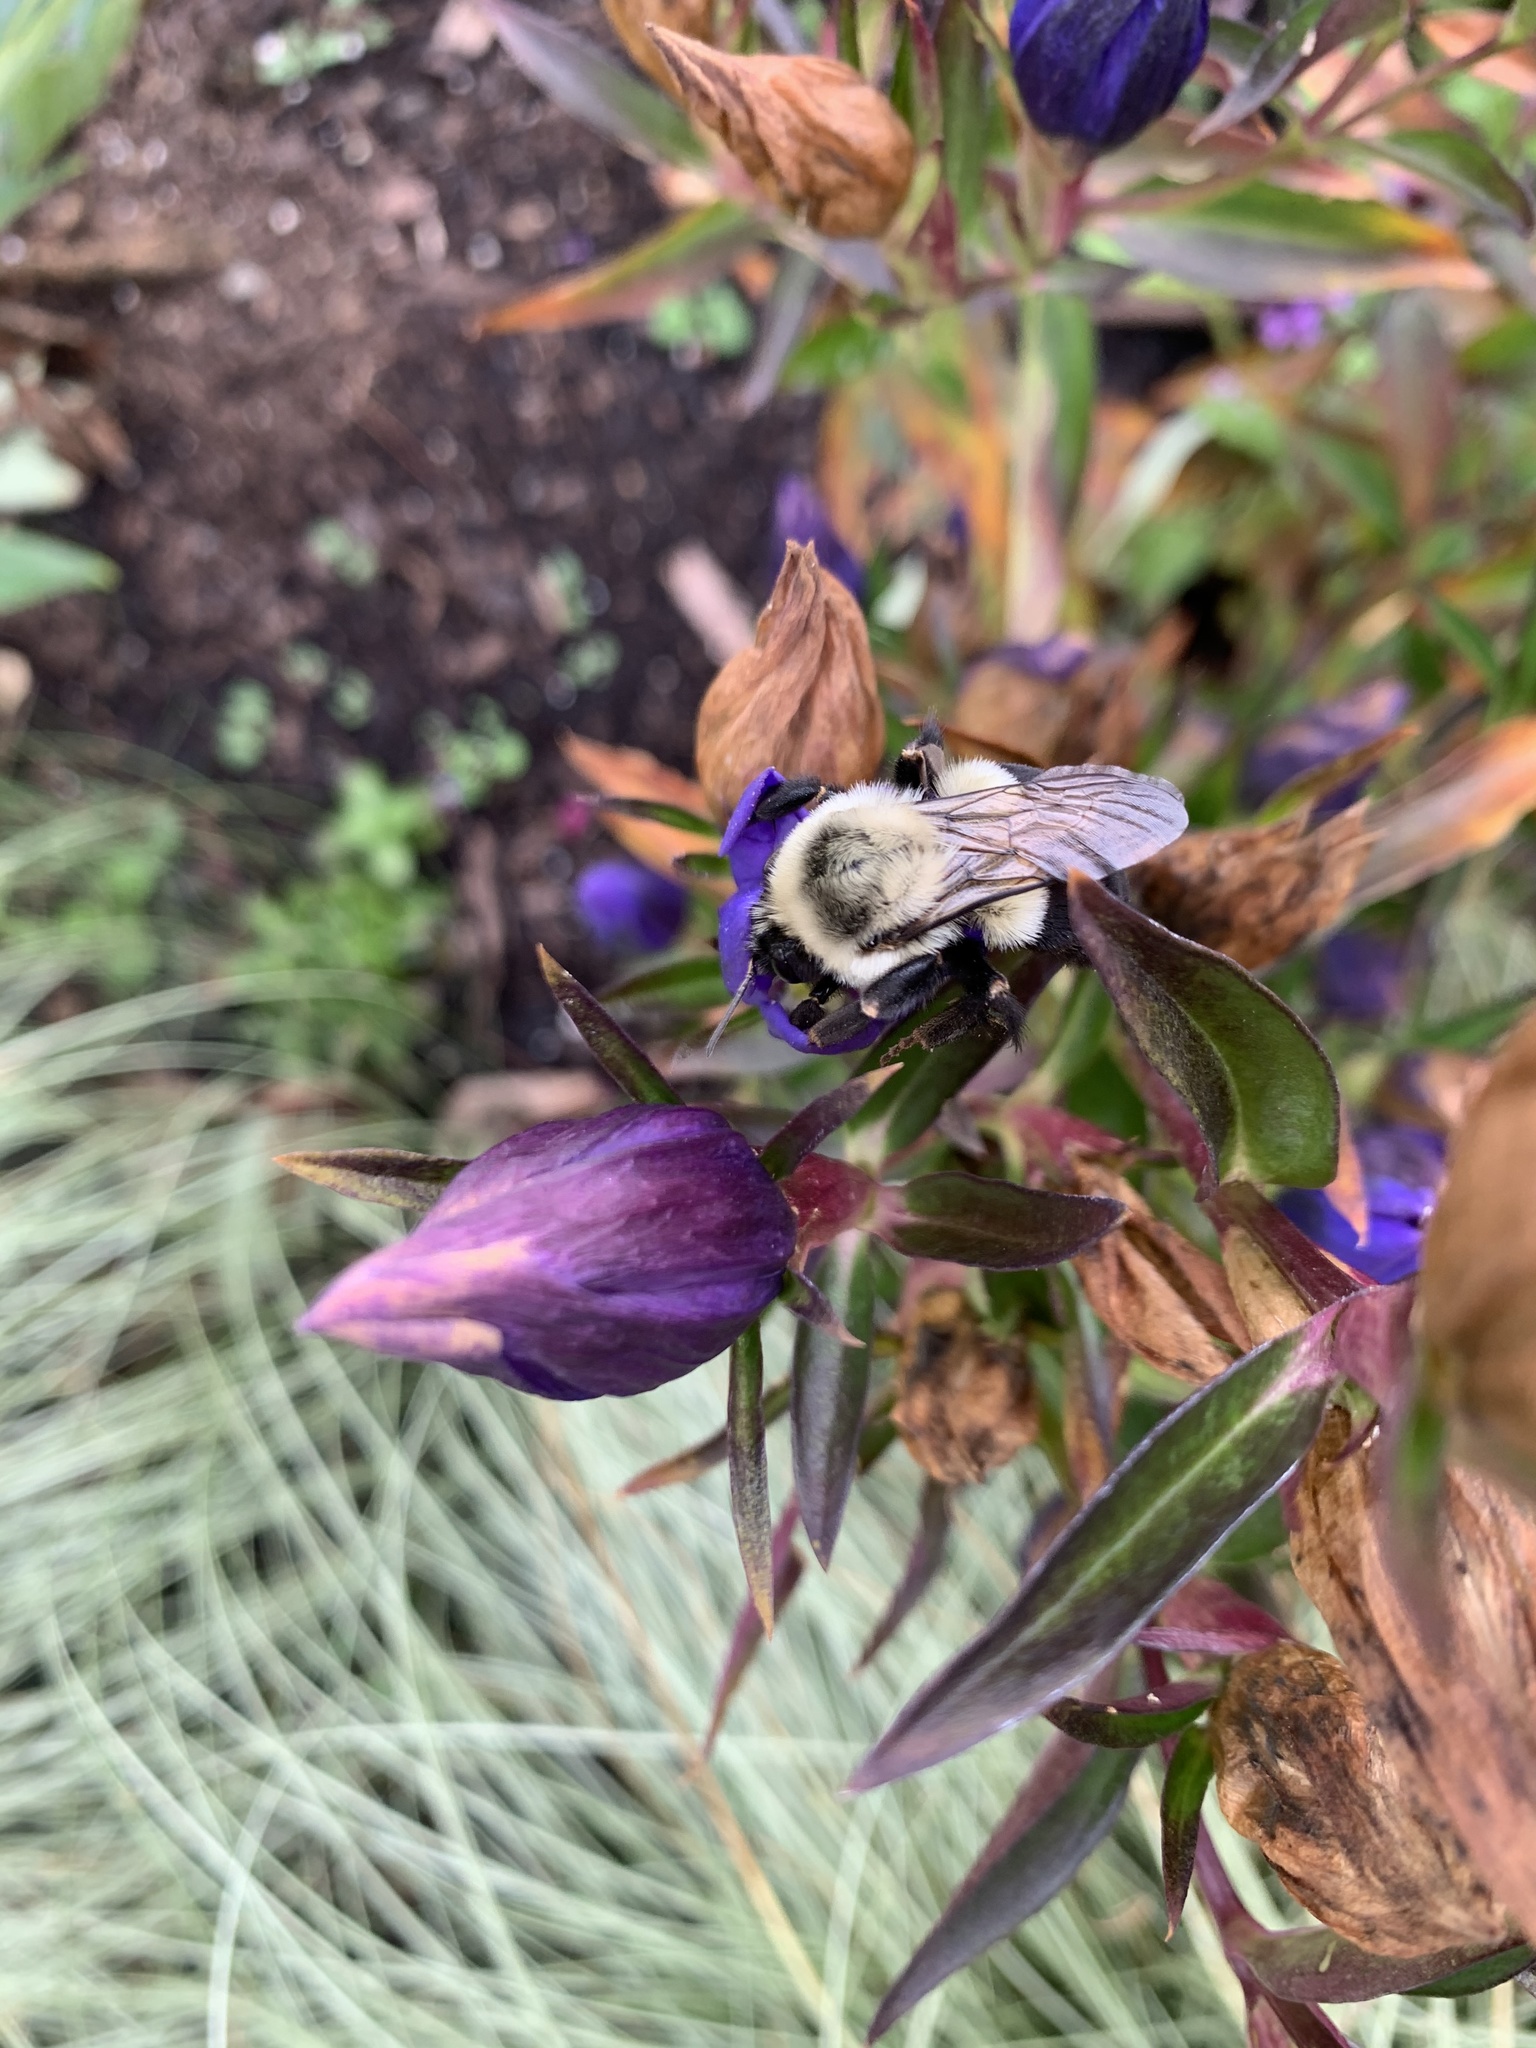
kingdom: Animalia
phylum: Arthropoda
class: Insecta
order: Hymenoptera
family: Apidae
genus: Bombus
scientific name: Bombus impatiens
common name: Common eastern bumble bee
